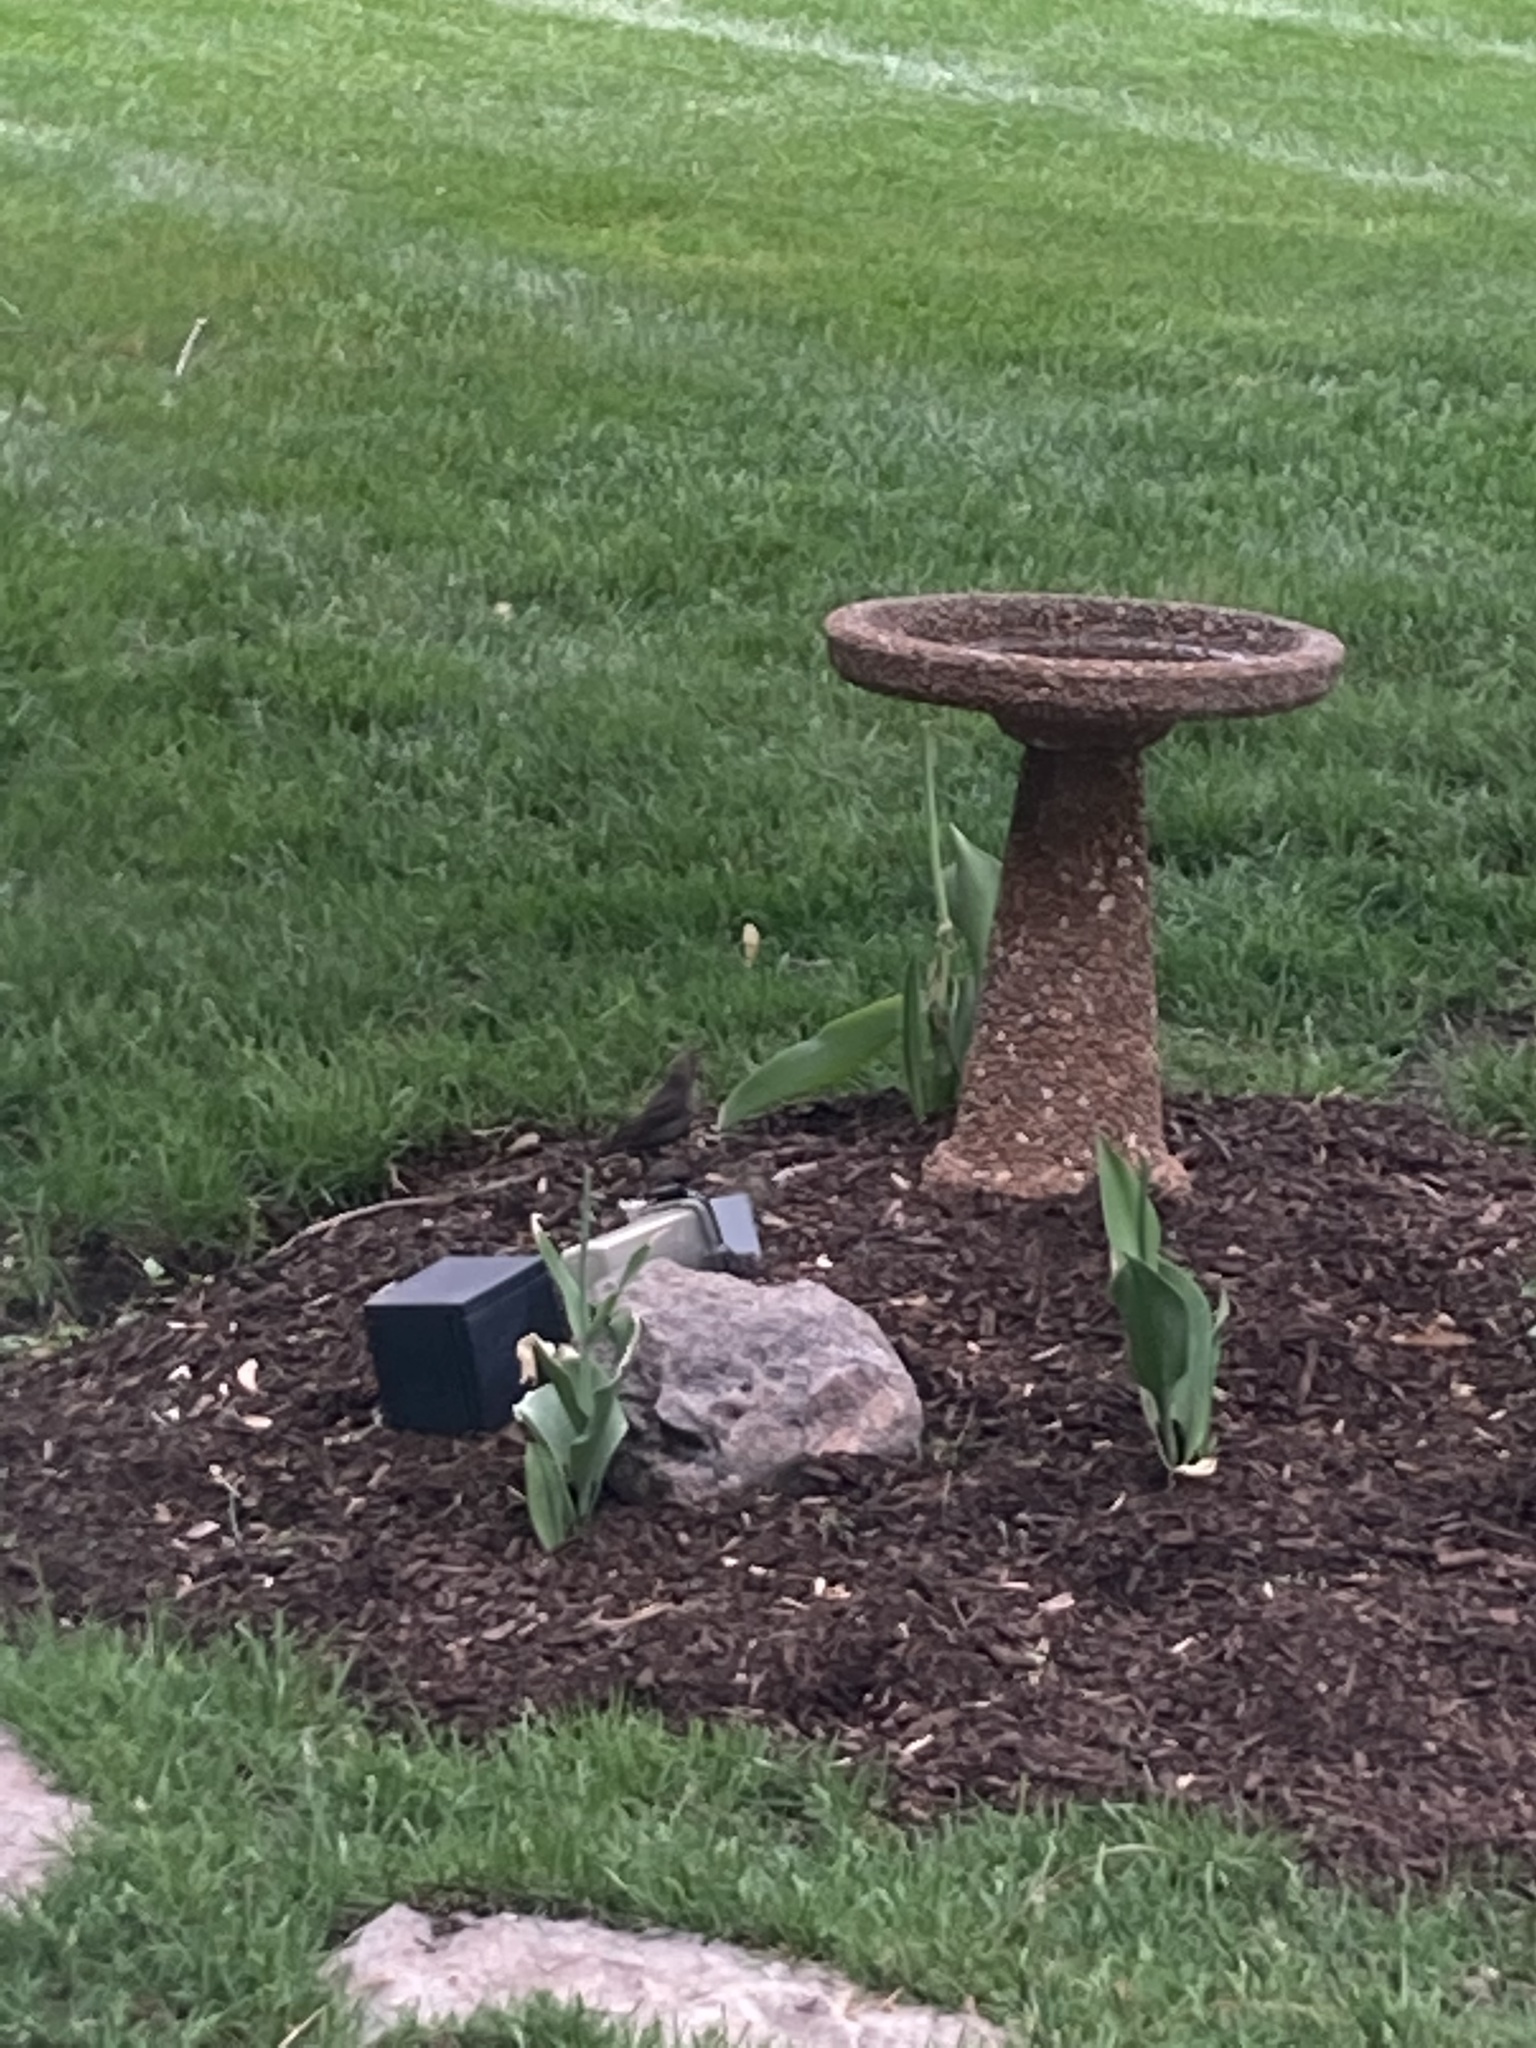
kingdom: Animalia
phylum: Chordata
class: Aves
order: Passeriformes
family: Icteridae
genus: Molothrus
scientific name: Molothrus ater
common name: Brown-headed cowbird
